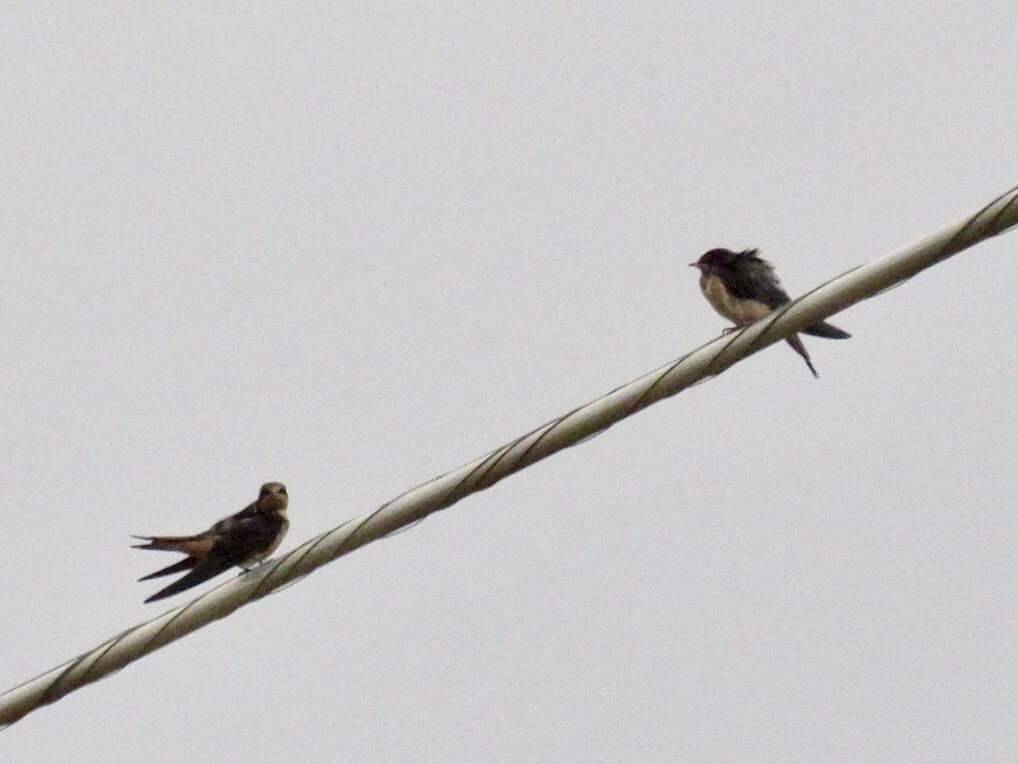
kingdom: Animalia
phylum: Chordata
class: Aves
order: Passeriformes
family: Hirundinidae
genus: Hirundo
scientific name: Hirundo rustica
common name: Barn swallow
